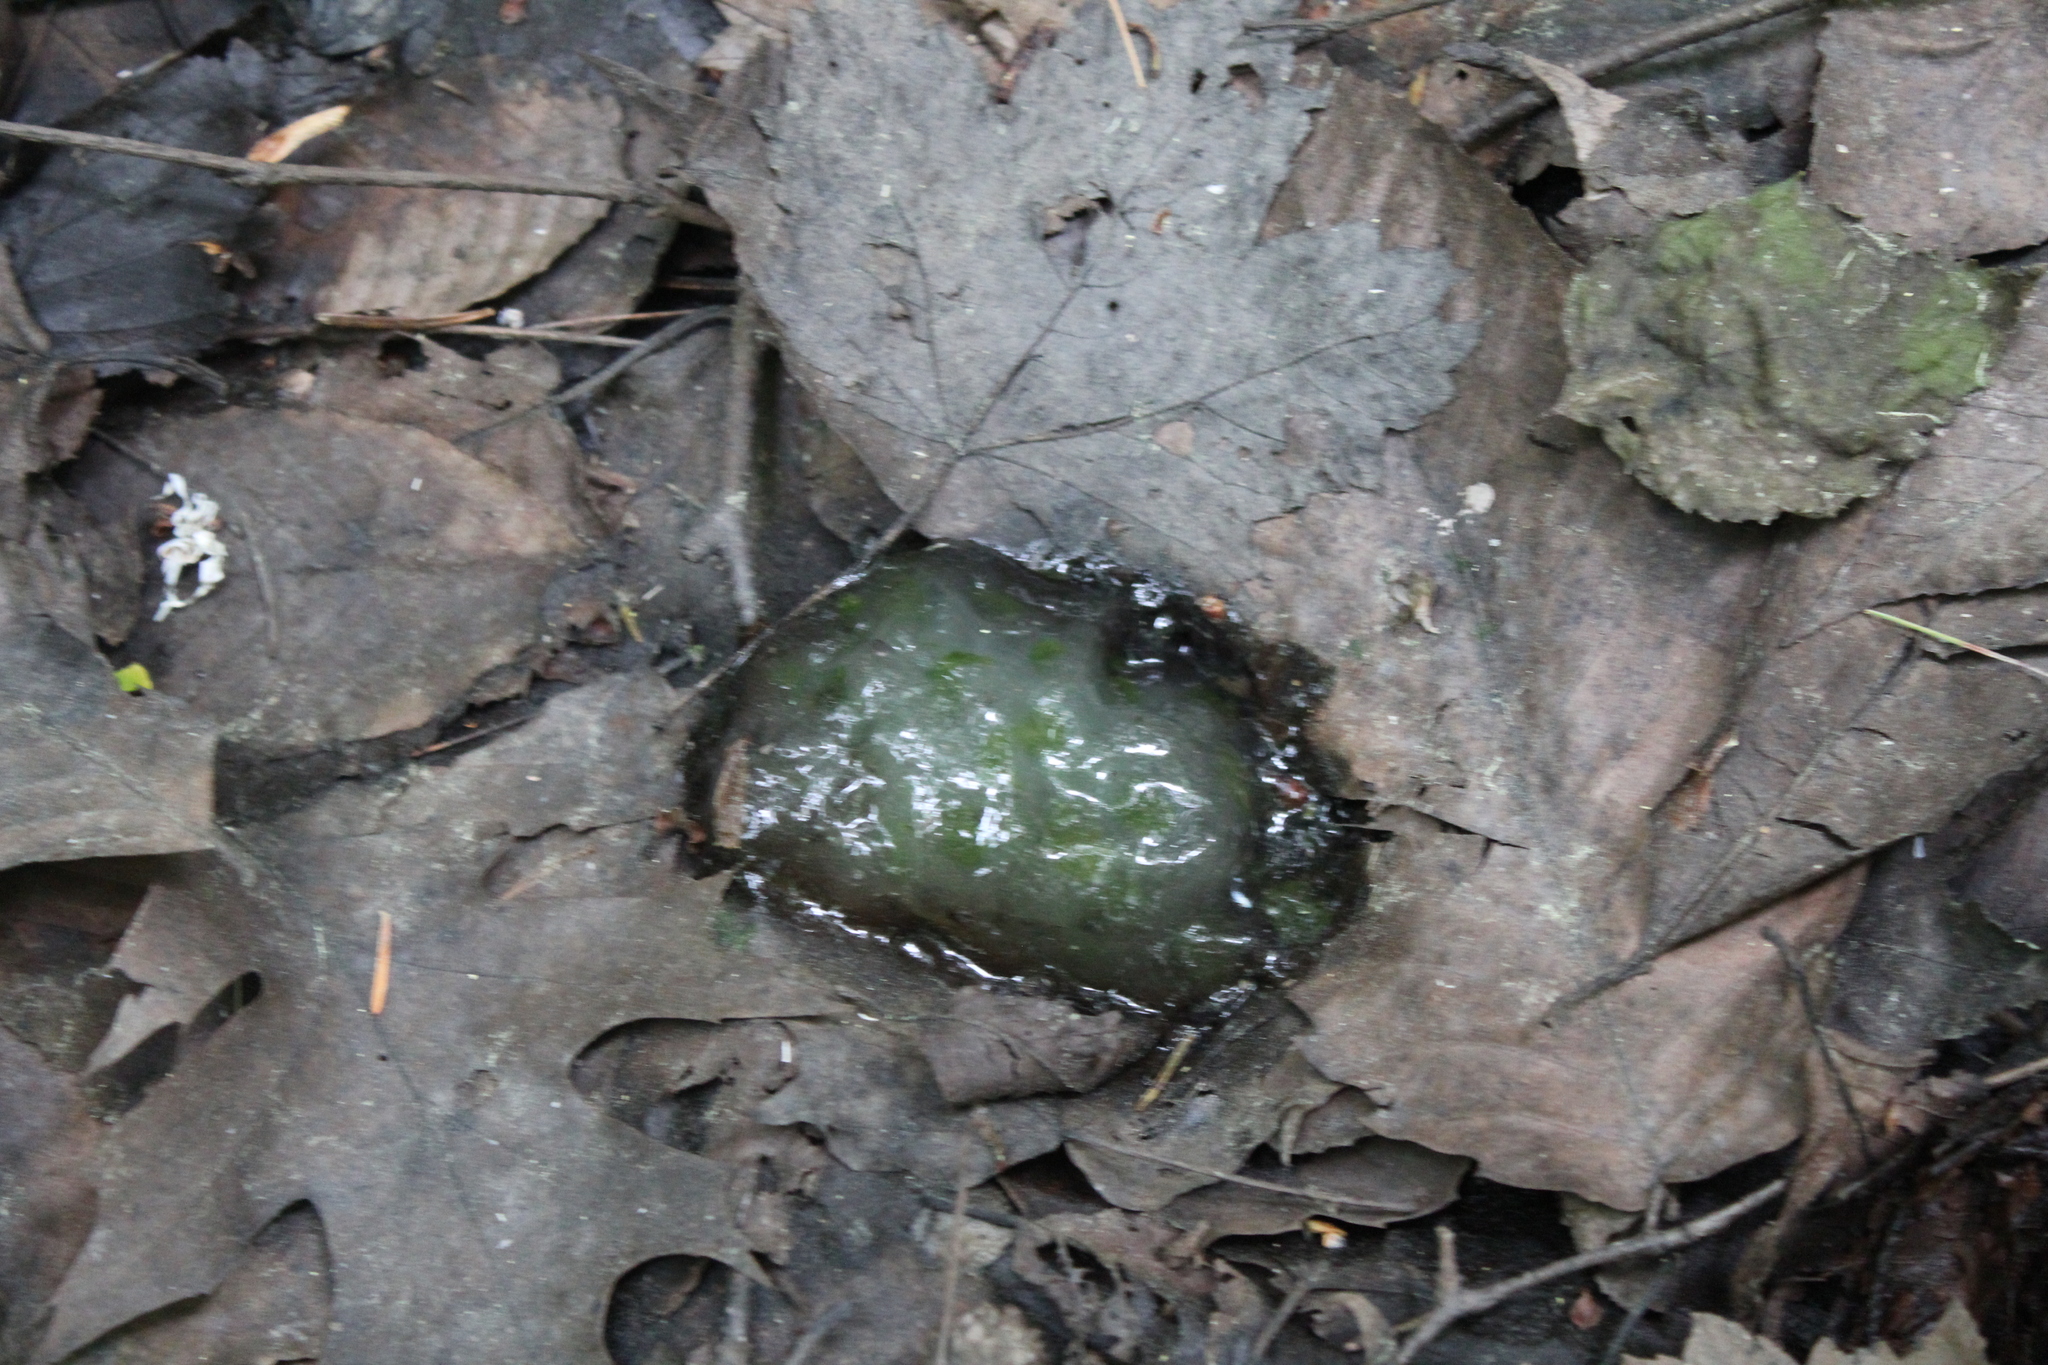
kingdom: Animalia
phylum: Chordata
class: Amphibia
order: Caudata
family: Ambystomatidae
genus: Ambystoma
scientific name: Ambystoma maculatum
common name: Spotted salamander
